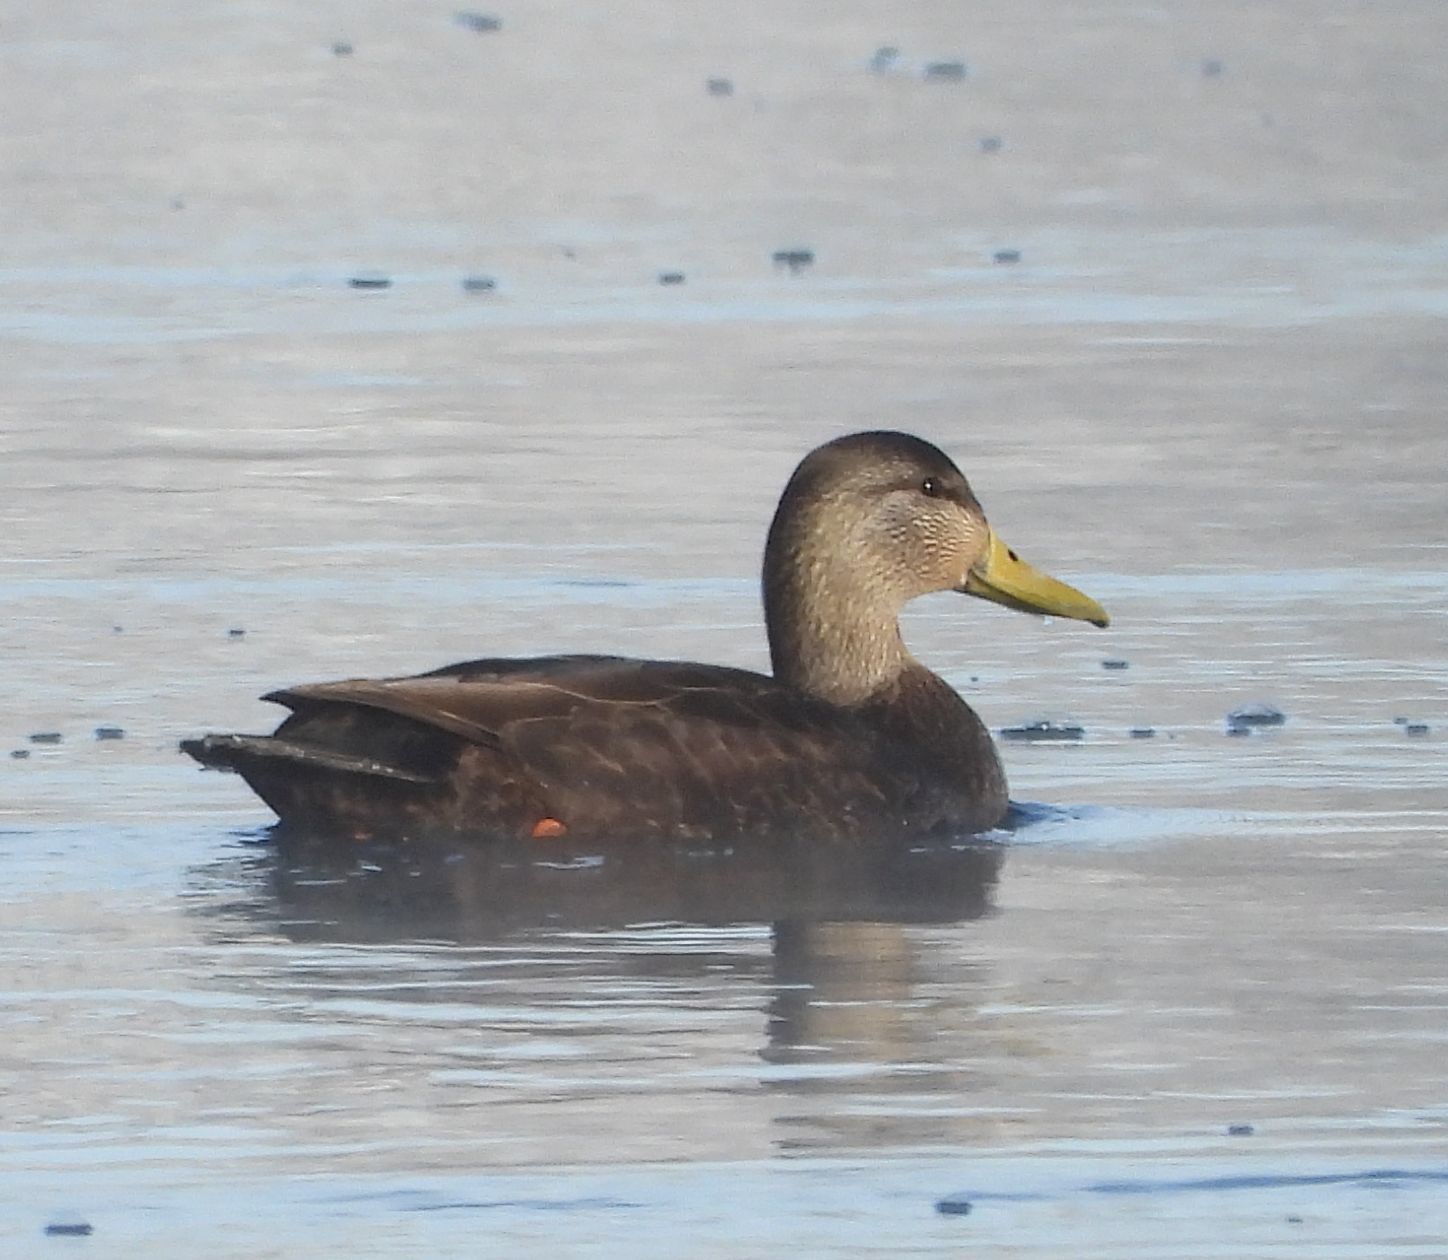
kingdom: Animalia
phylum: Chordata
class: Aves
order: Anseriformes
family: Anatidae
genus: Anas
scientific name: Anas rubripes
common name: American black duck
